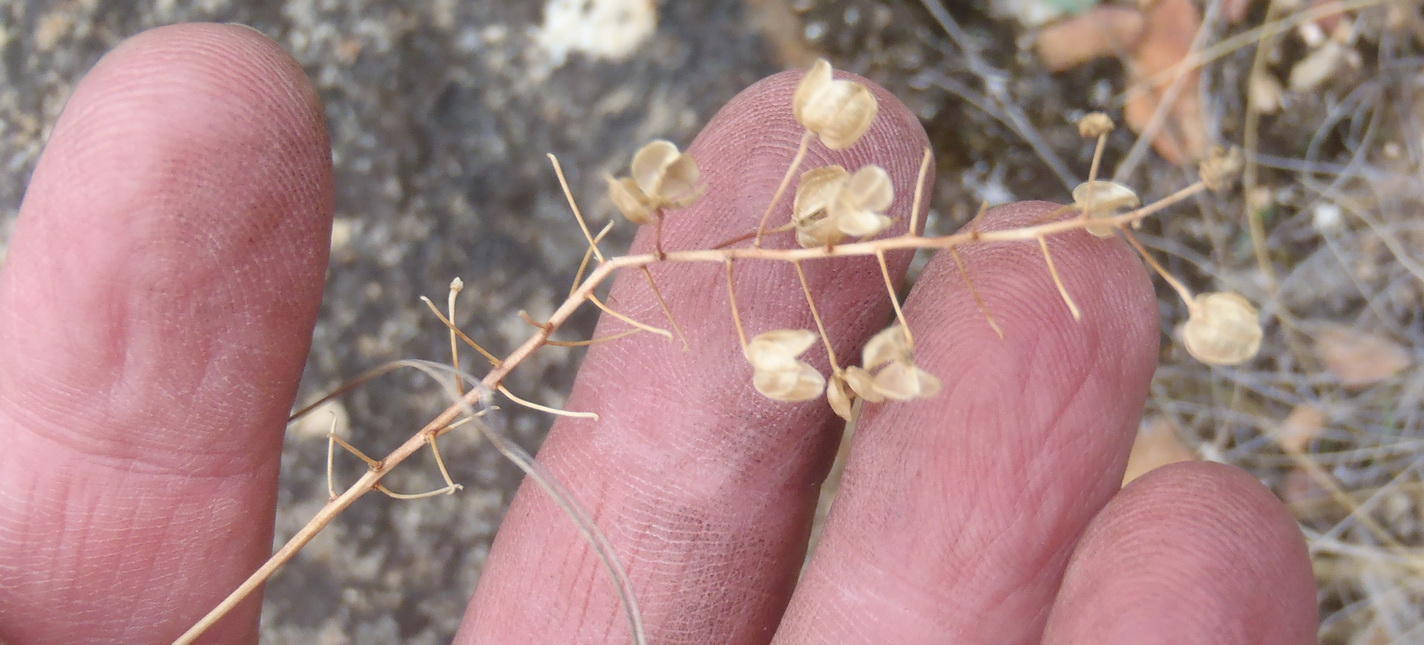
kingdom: Plantae
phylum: Tracheophyta
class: Liliopsida
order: Asparagales
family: Asparagaceae
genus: Drimia
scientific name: Drimia ciliata
